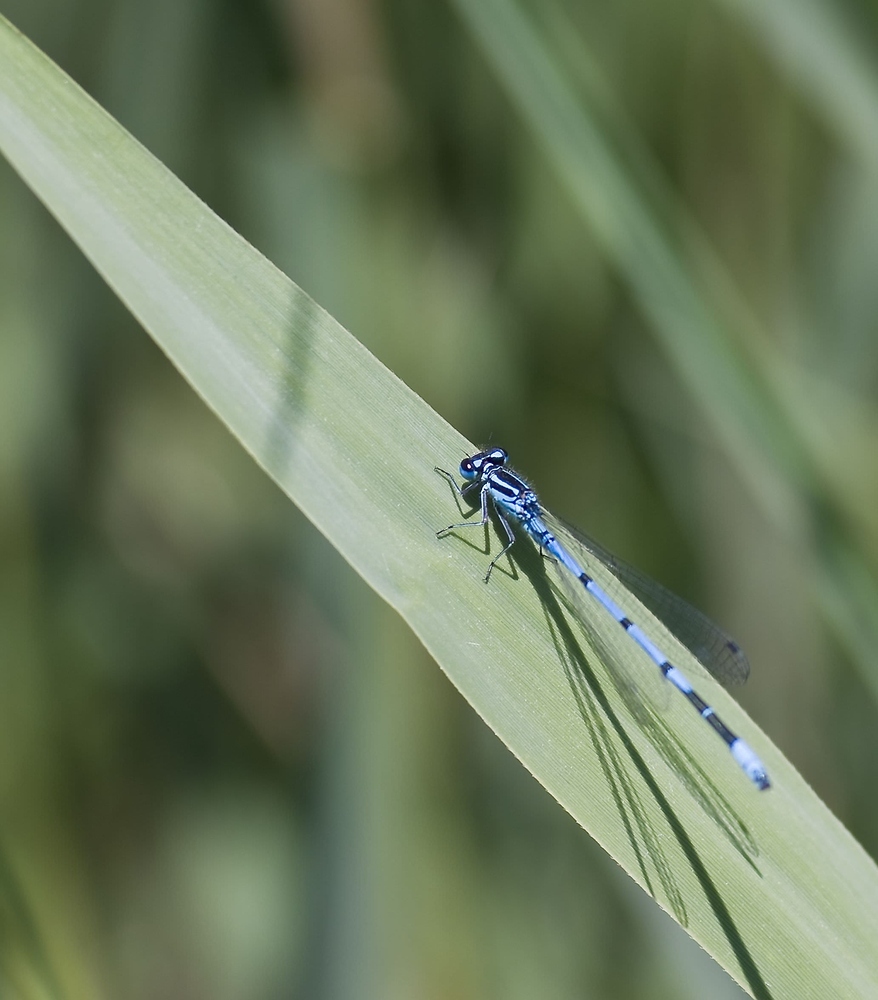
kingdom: Animalia
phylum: Arthropoda
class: Insecta
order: Odonata
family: Coenagrionidae
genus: Coenagrion
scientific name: Coenagrion puella
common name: Azure damselfly
